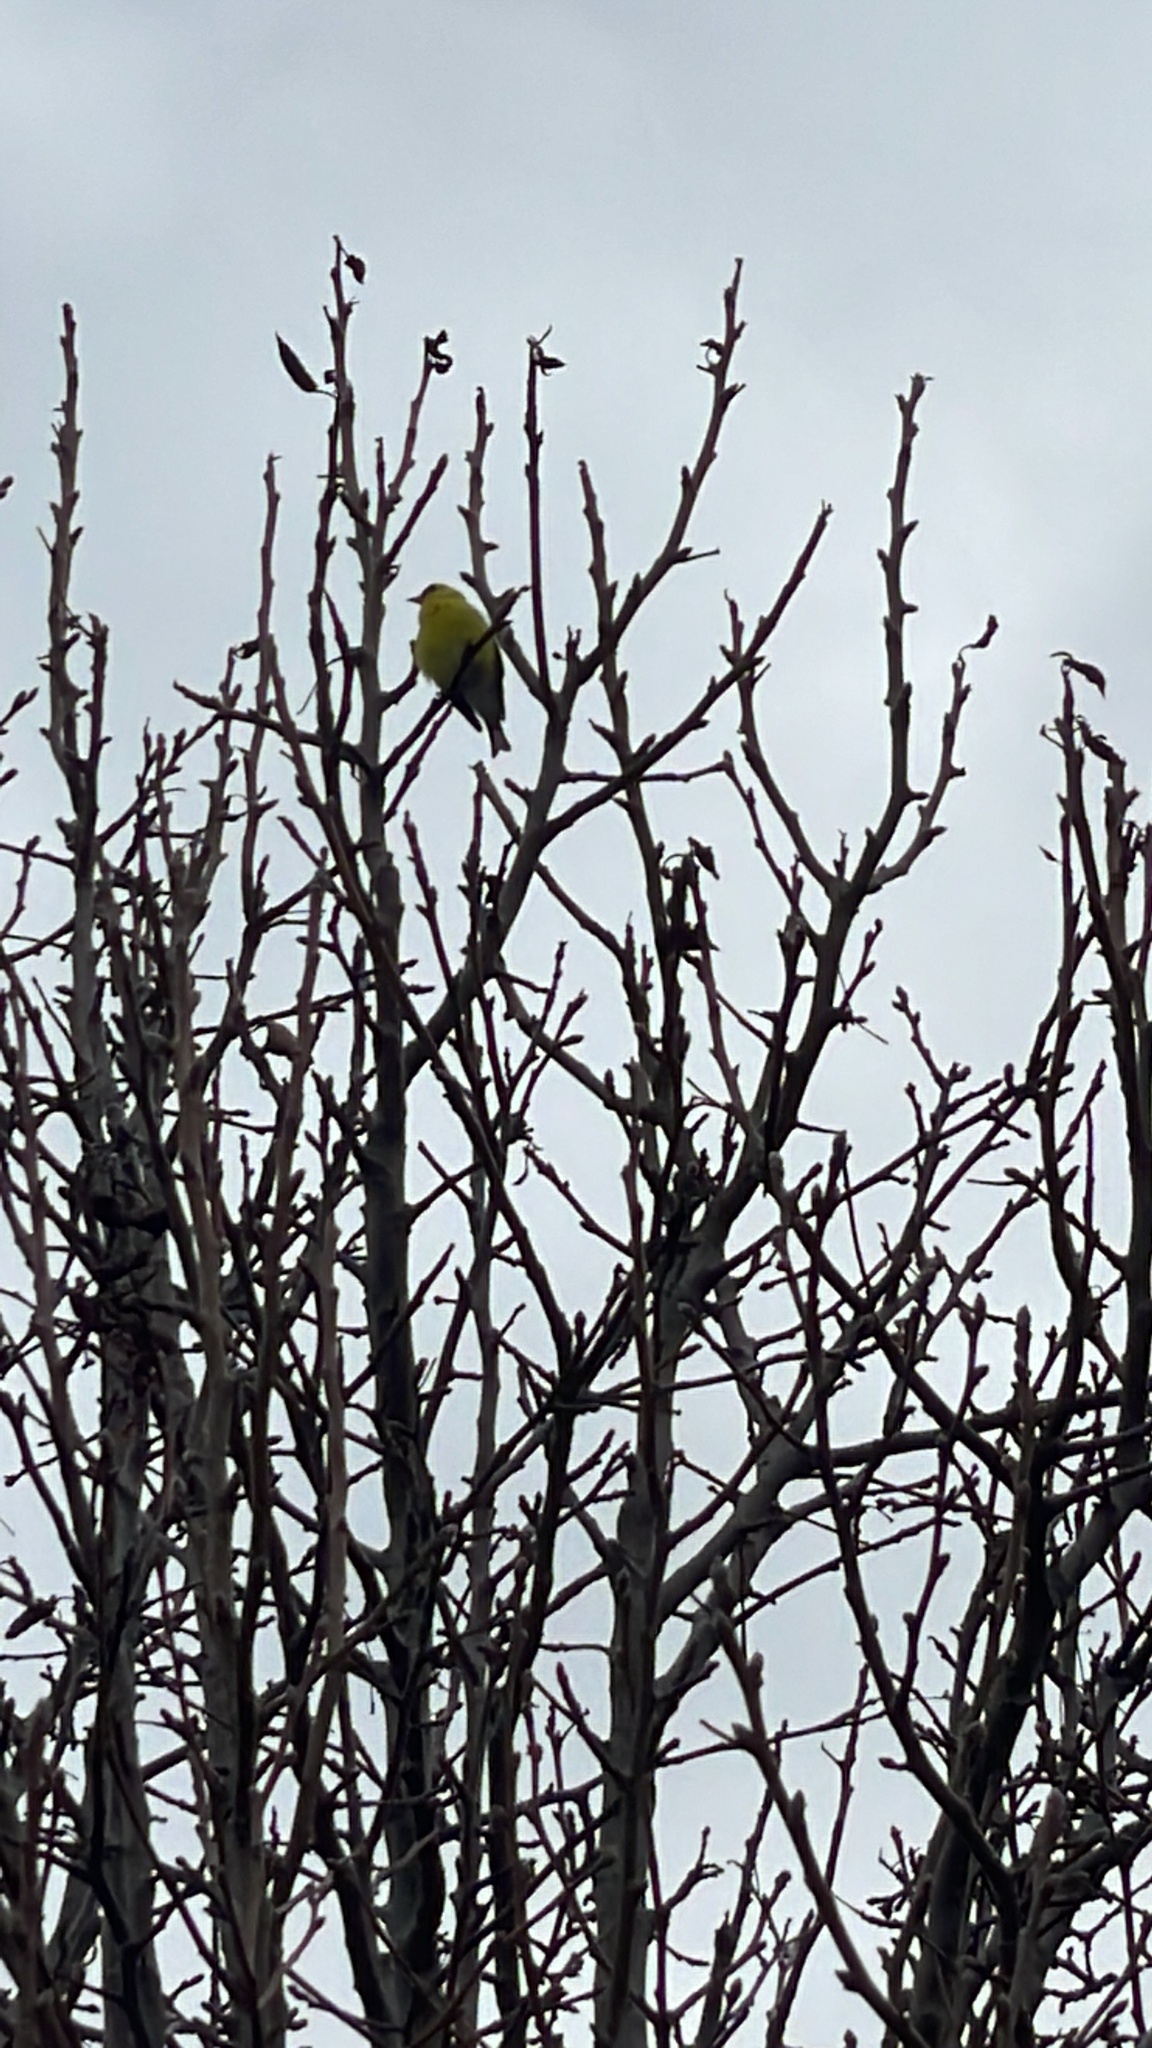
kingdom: Animalia
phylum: Chordata
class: Aves
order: Passeriformes
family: Fringillidae
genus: Spinus
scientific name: Spinus tristis
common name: American goldfinch
